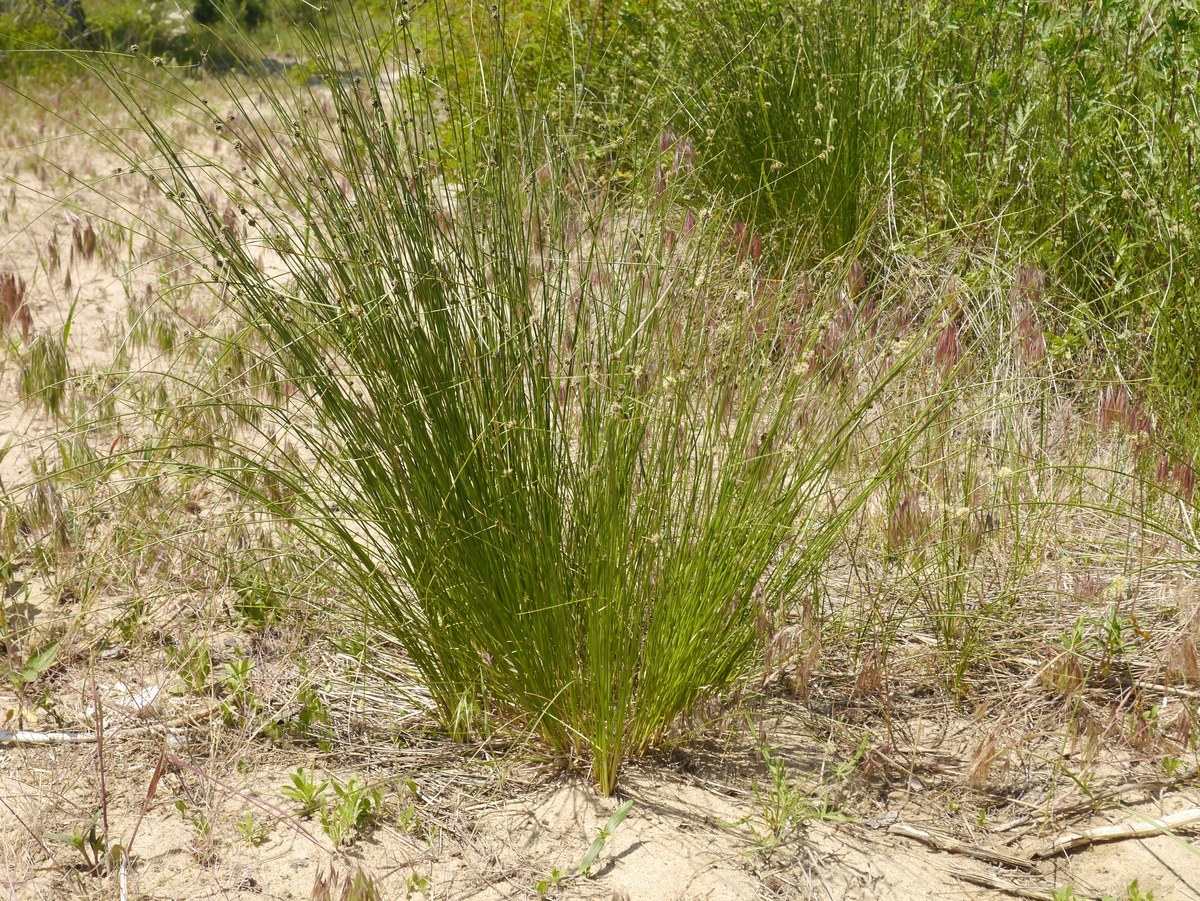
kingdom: Plantae
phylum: Tracheophyta
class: Liliopsida
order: Poales
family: Cyperaceae
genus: Scirpoides
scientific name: Scirpoides holoschoenus
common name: Round-headed club-rush
